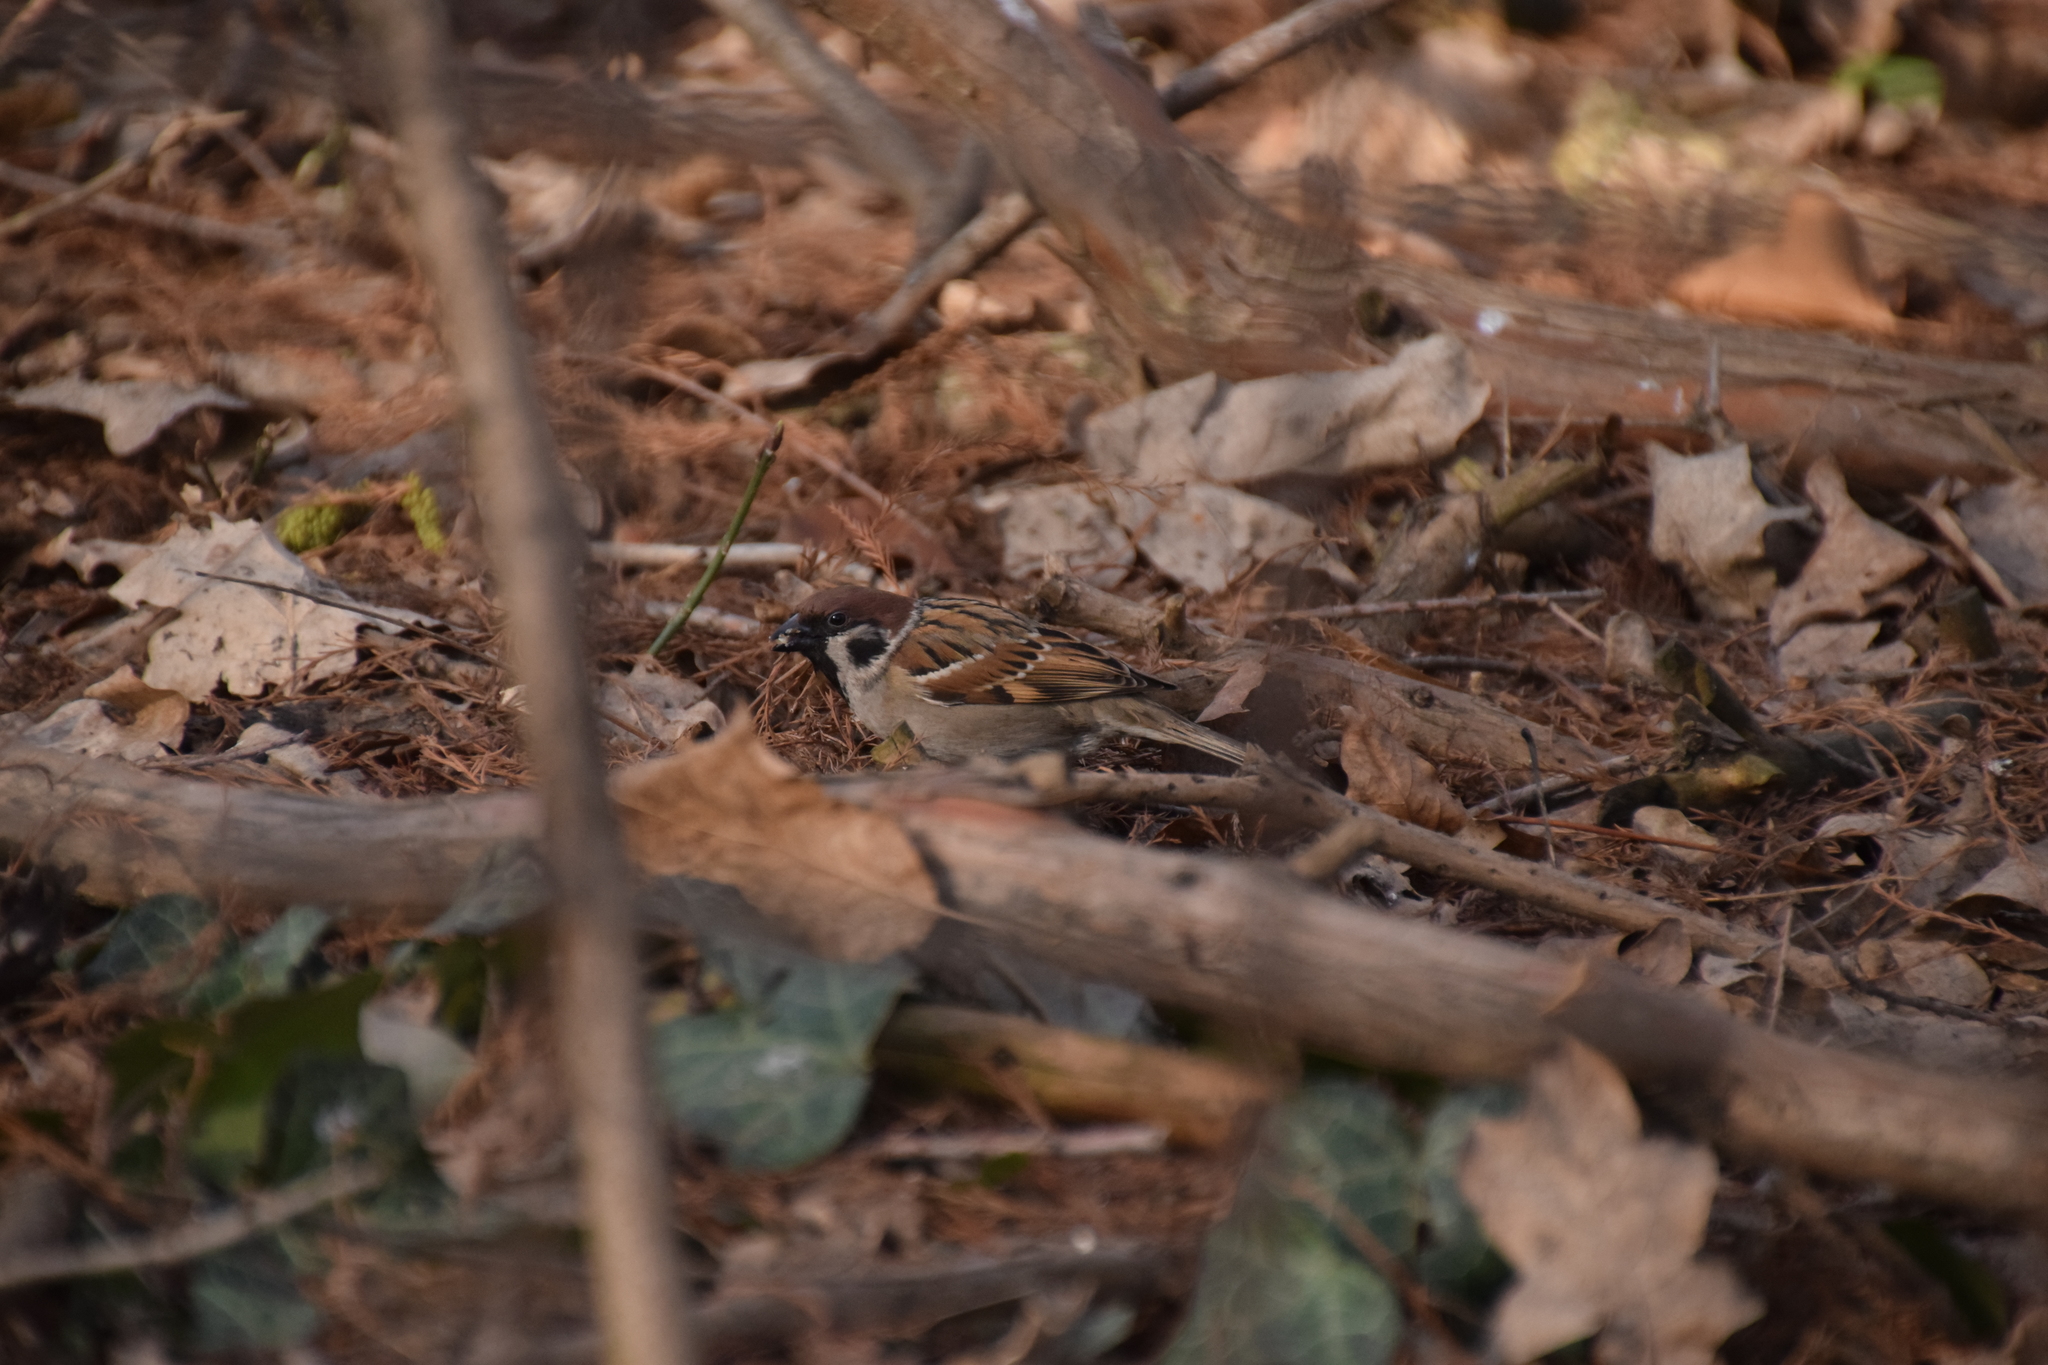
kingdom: Animalia
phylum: Chordata
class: Aves
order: Passeriformes
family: Passeridae
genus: Passer
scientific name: Passer montanus
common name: Eurasian tree sparrow
